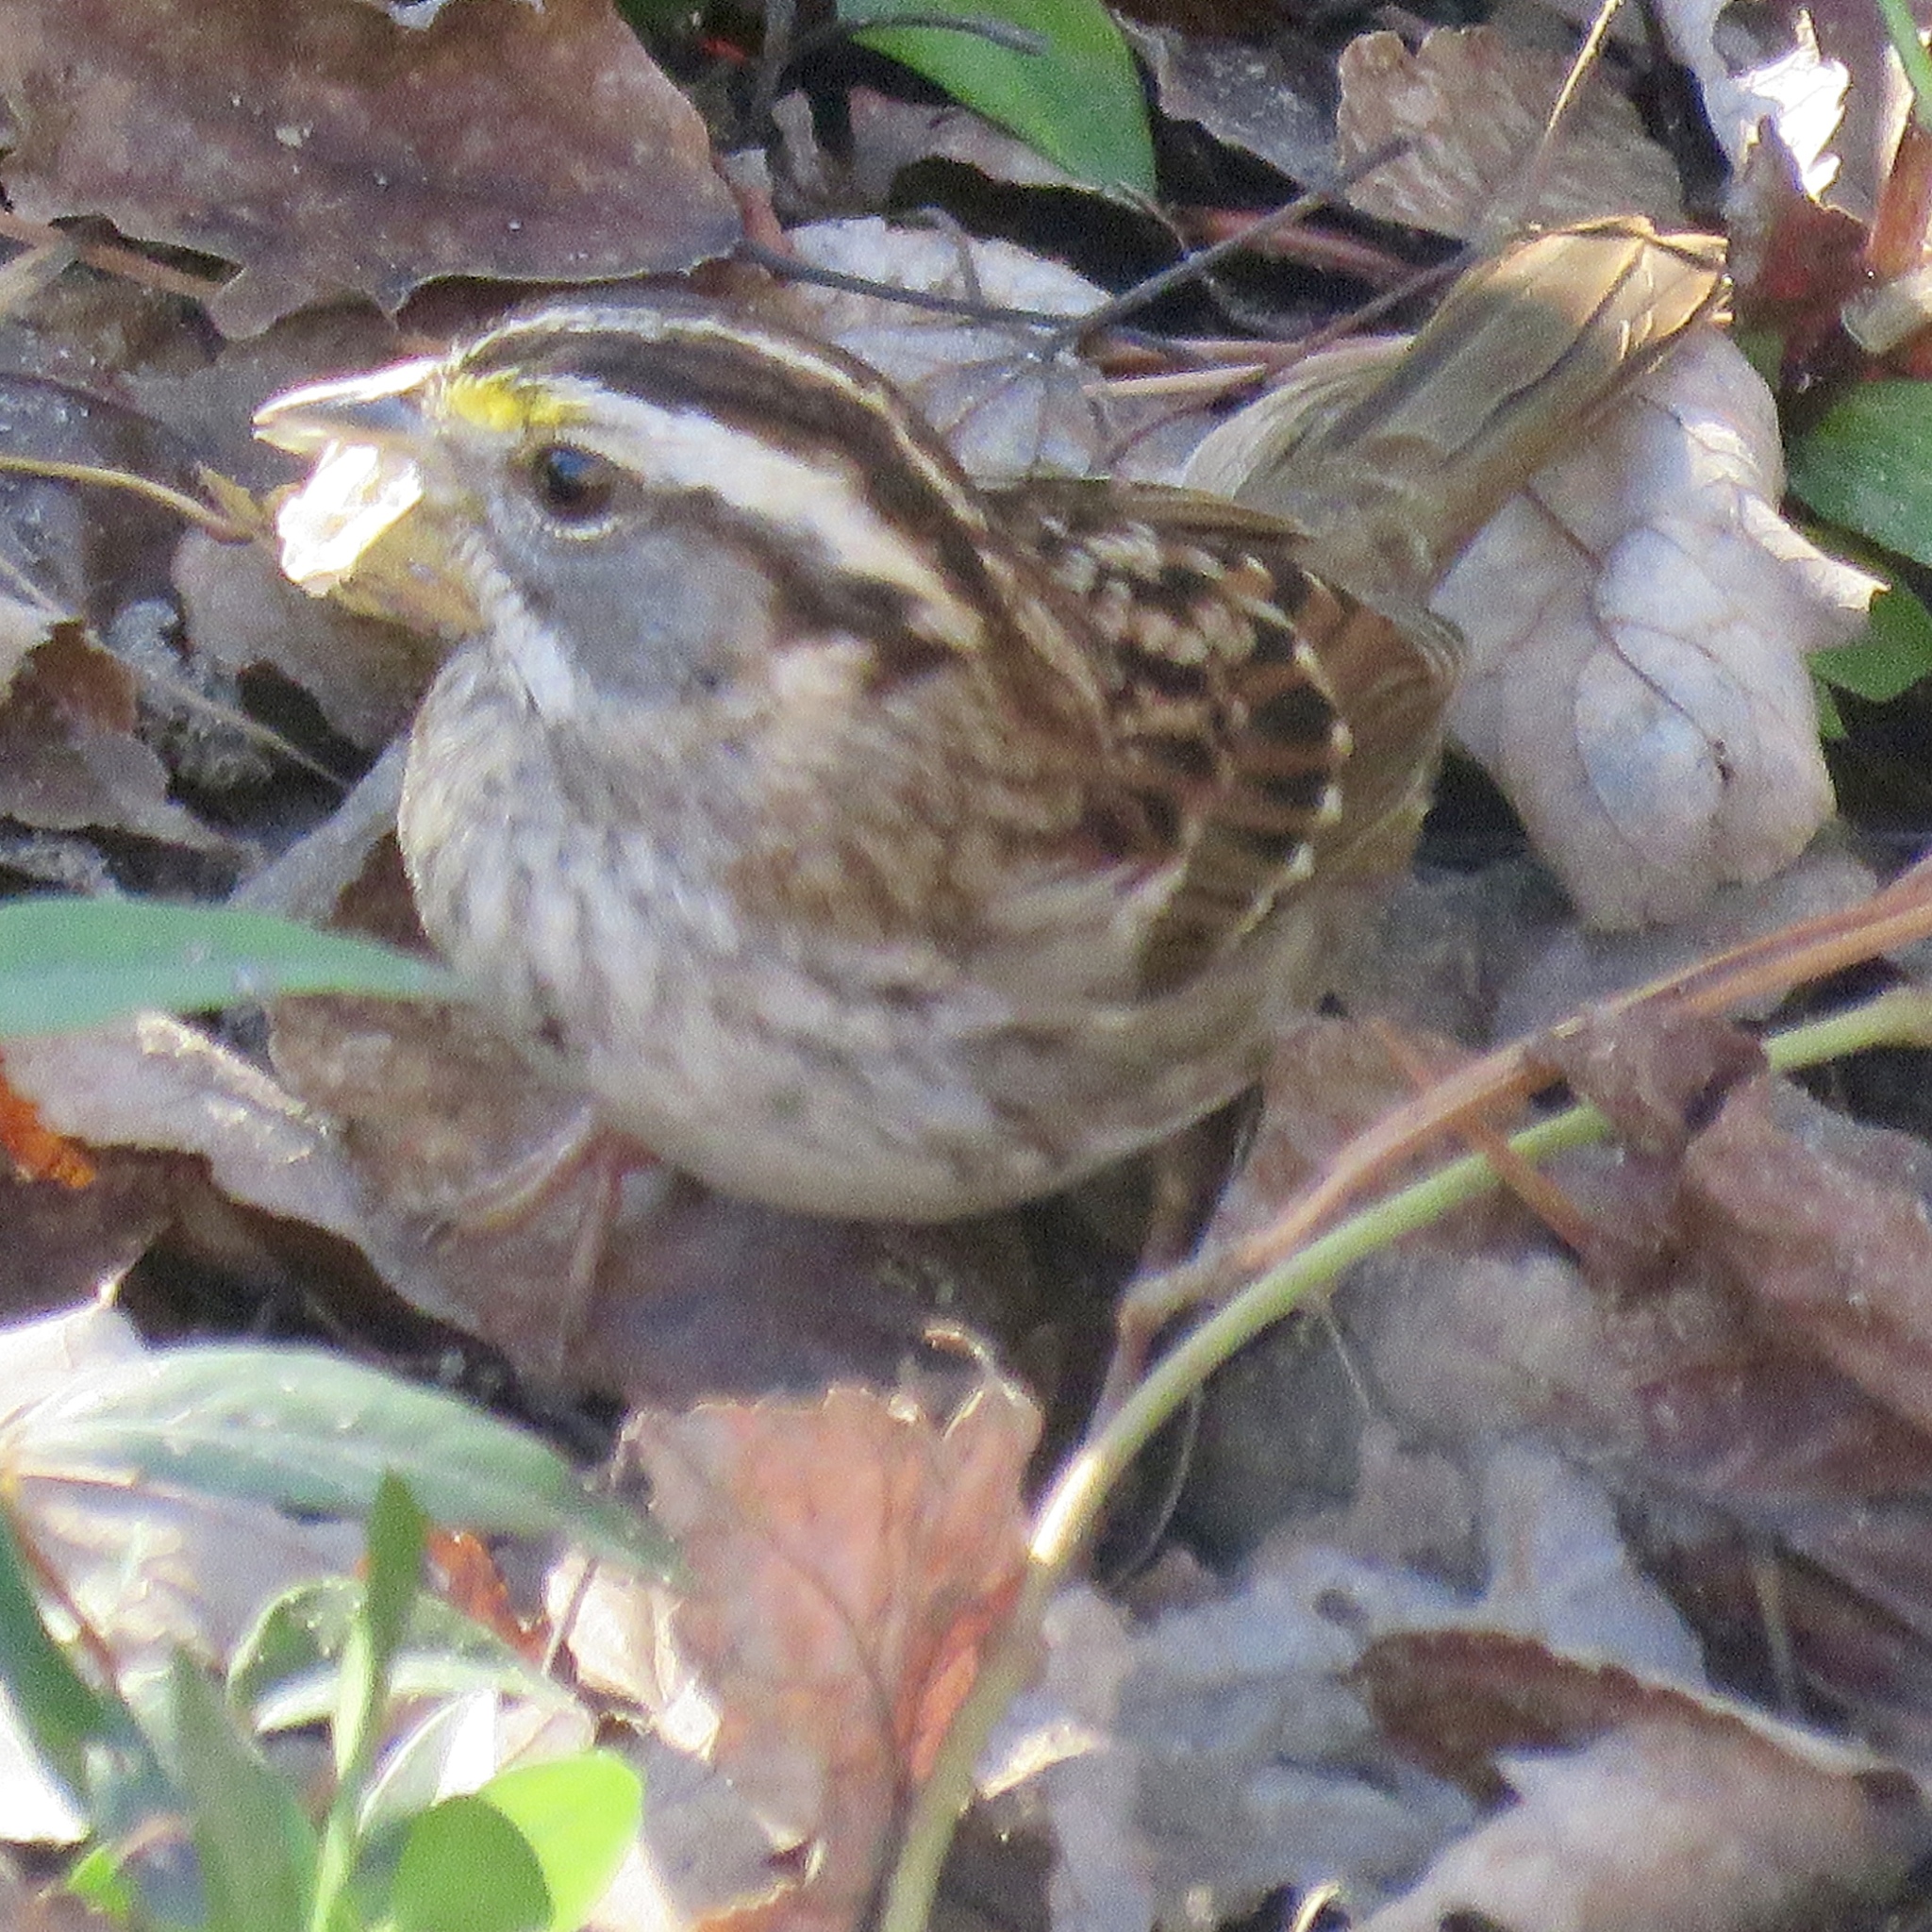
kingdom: Animalia
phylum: Chordata
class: Aves
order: Passeriformes
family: Passerellidae
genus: Zonotrichia
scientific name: Zonotrichia albicollis
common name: White-throated sparrow
